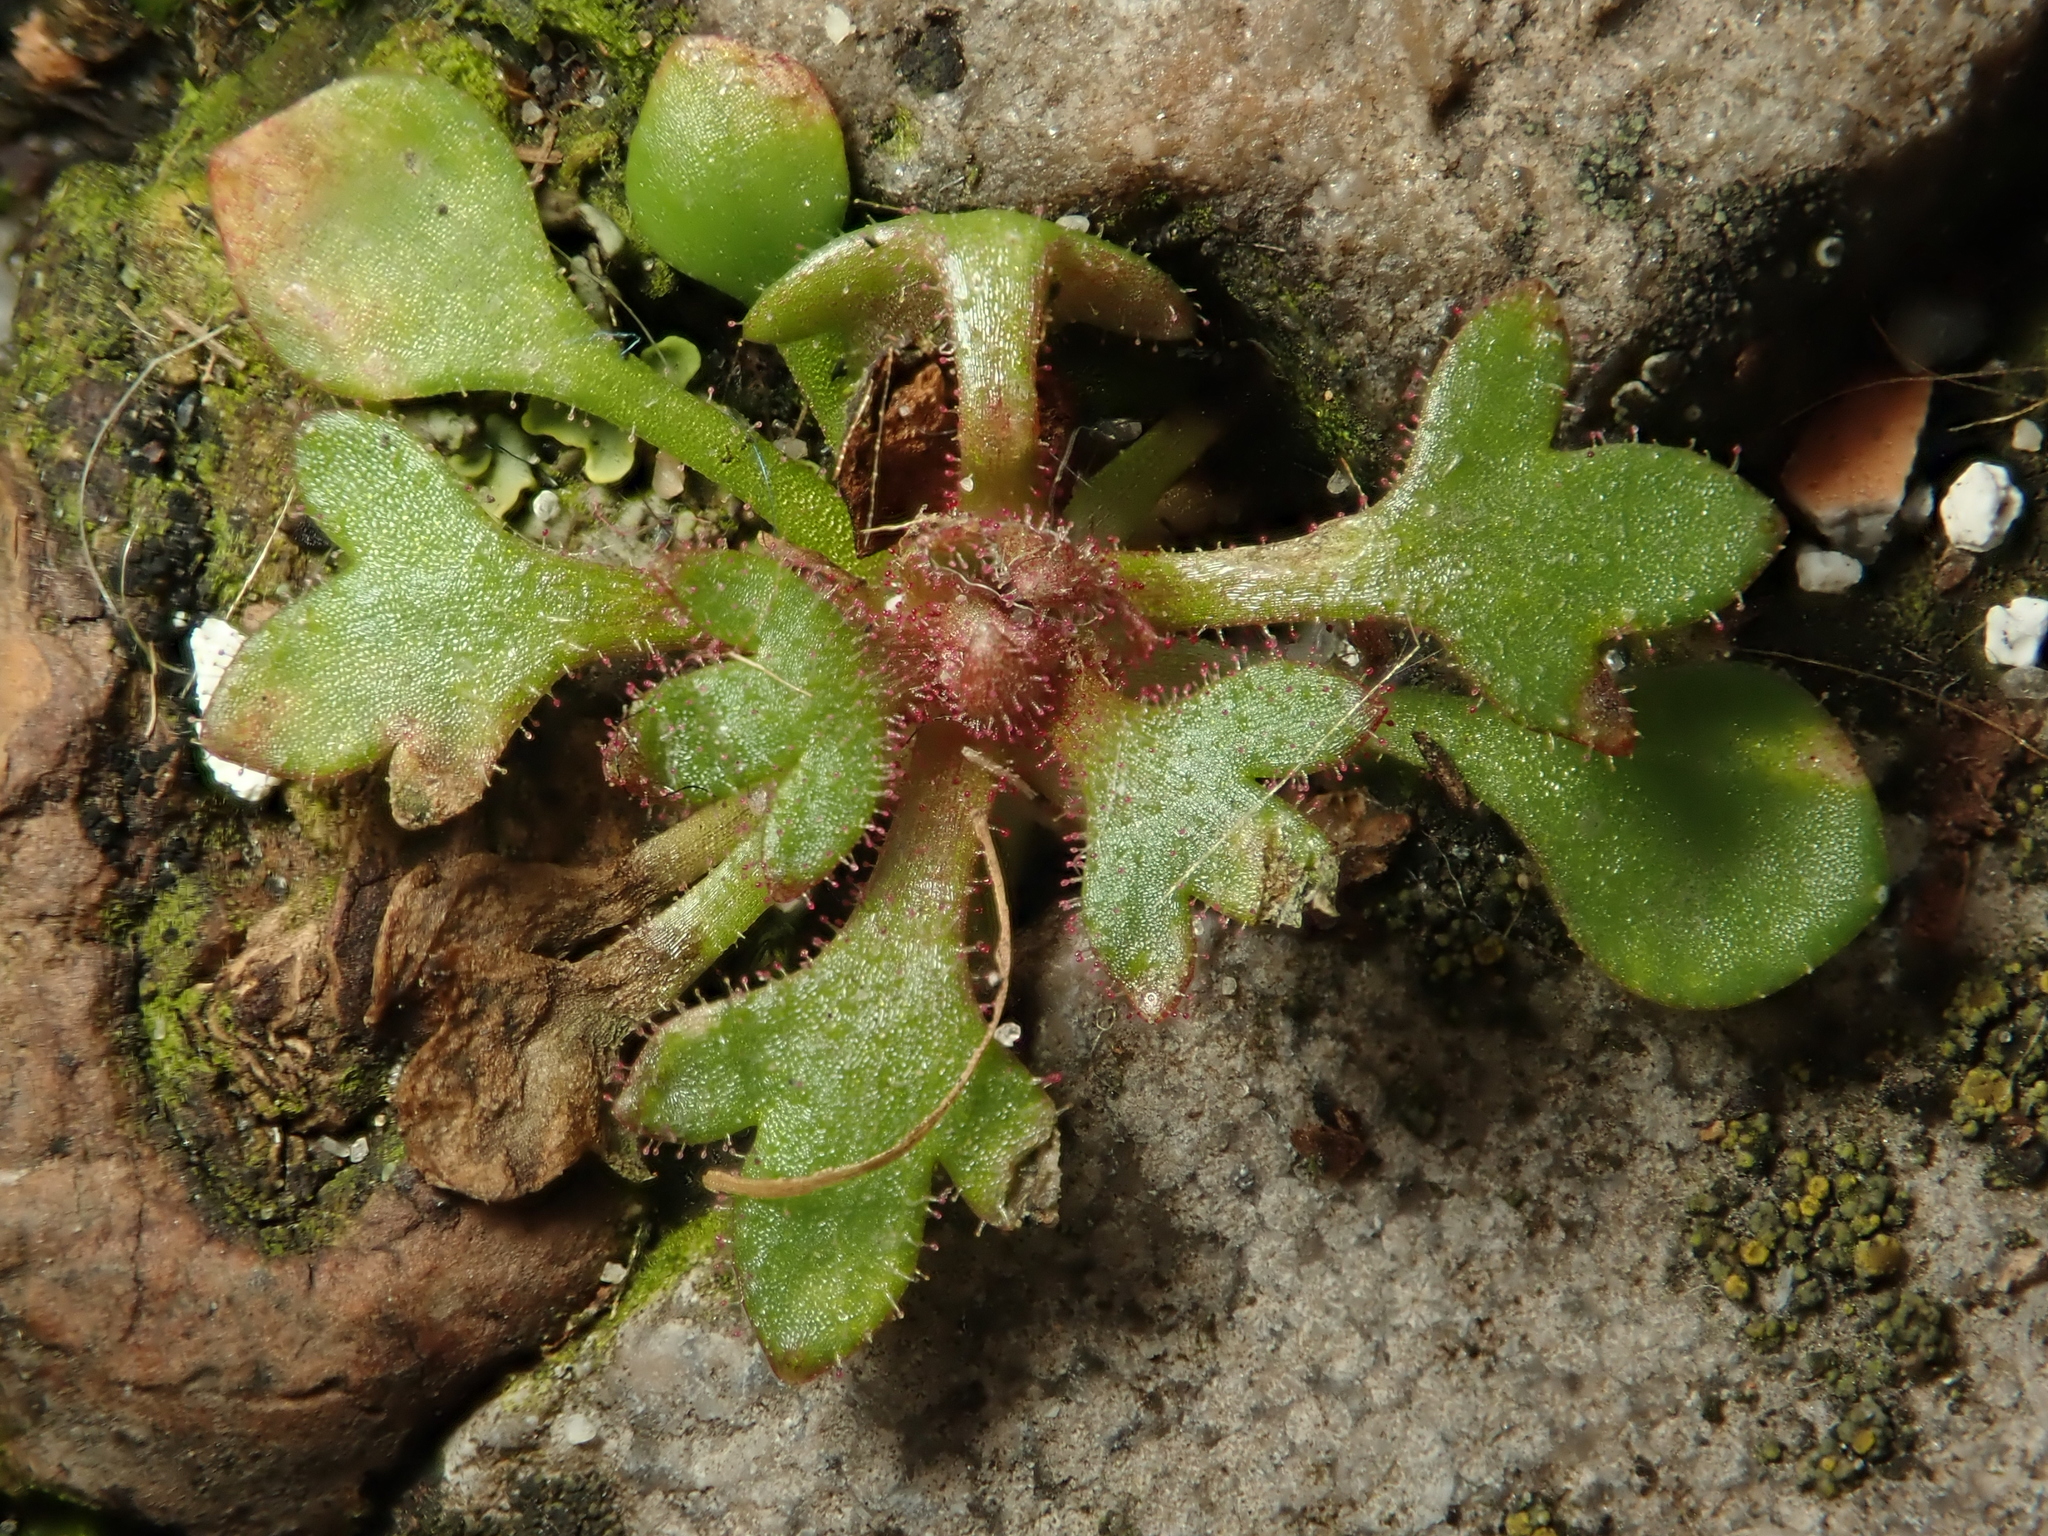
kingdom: Plantae
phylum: Tracheophyta
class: Magnoliopsida
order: Saxifragales
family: Saxifragaceae
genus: Saxifraga
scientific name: Saxifraga tridactylites
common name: Rue-leaved saxifrage
